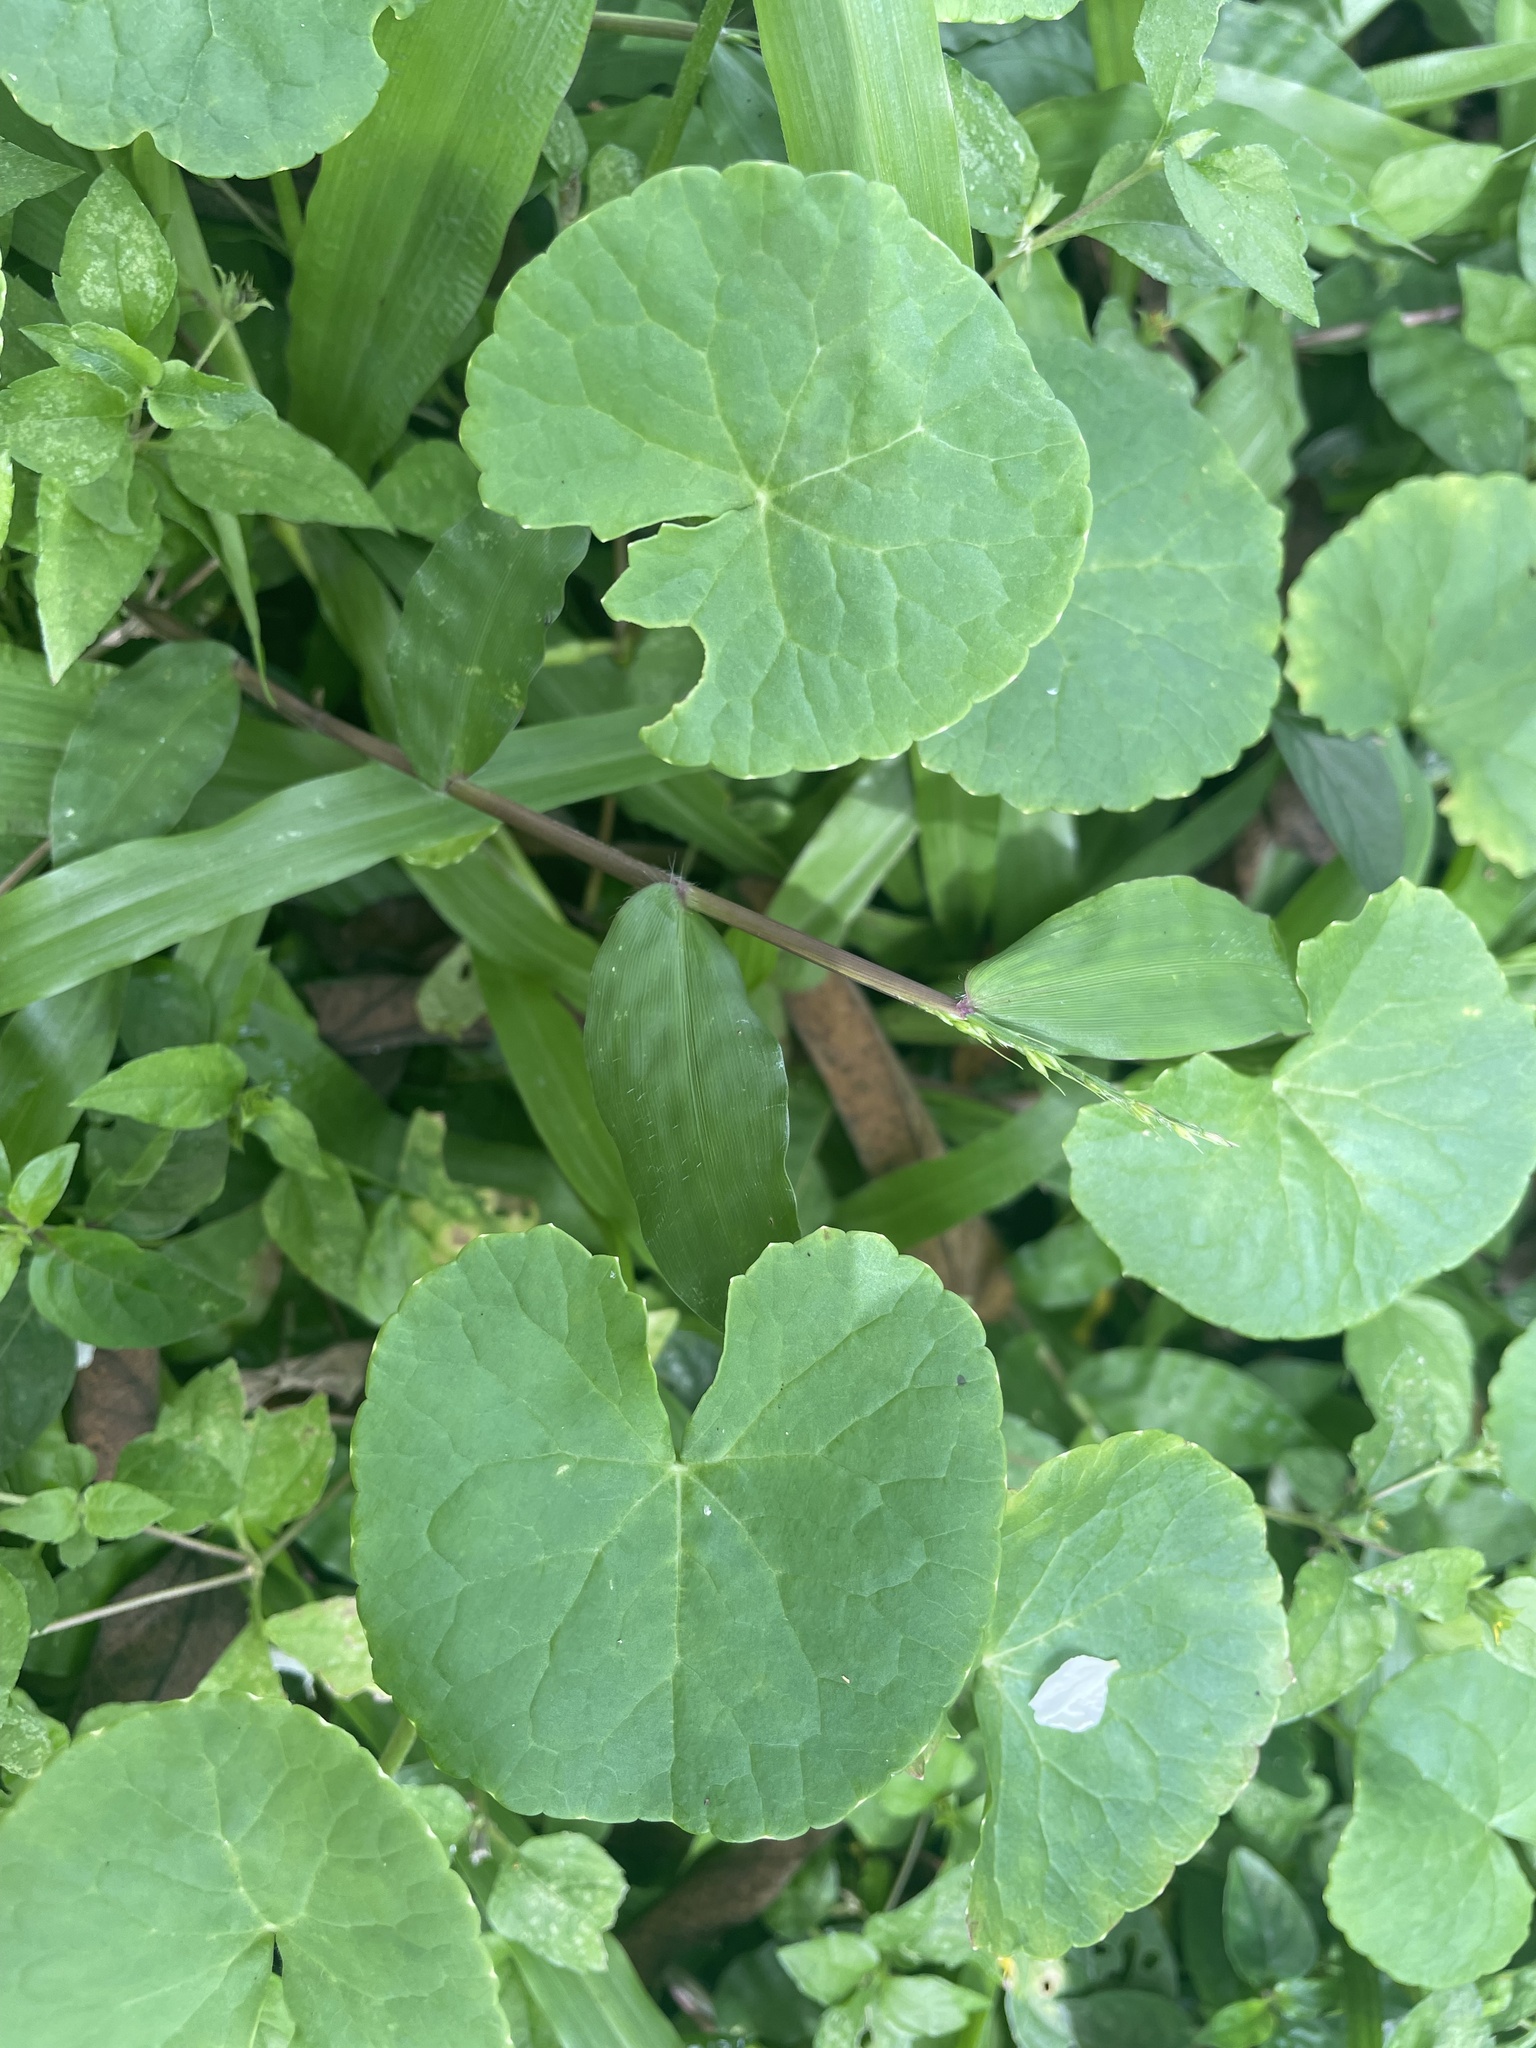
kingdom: Plantae
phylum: Tracheophyta
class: Magnoliopsida
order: Apiales
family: Apiaceae
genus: Centella
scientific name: Centella asiatica
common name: Spadeleaf
